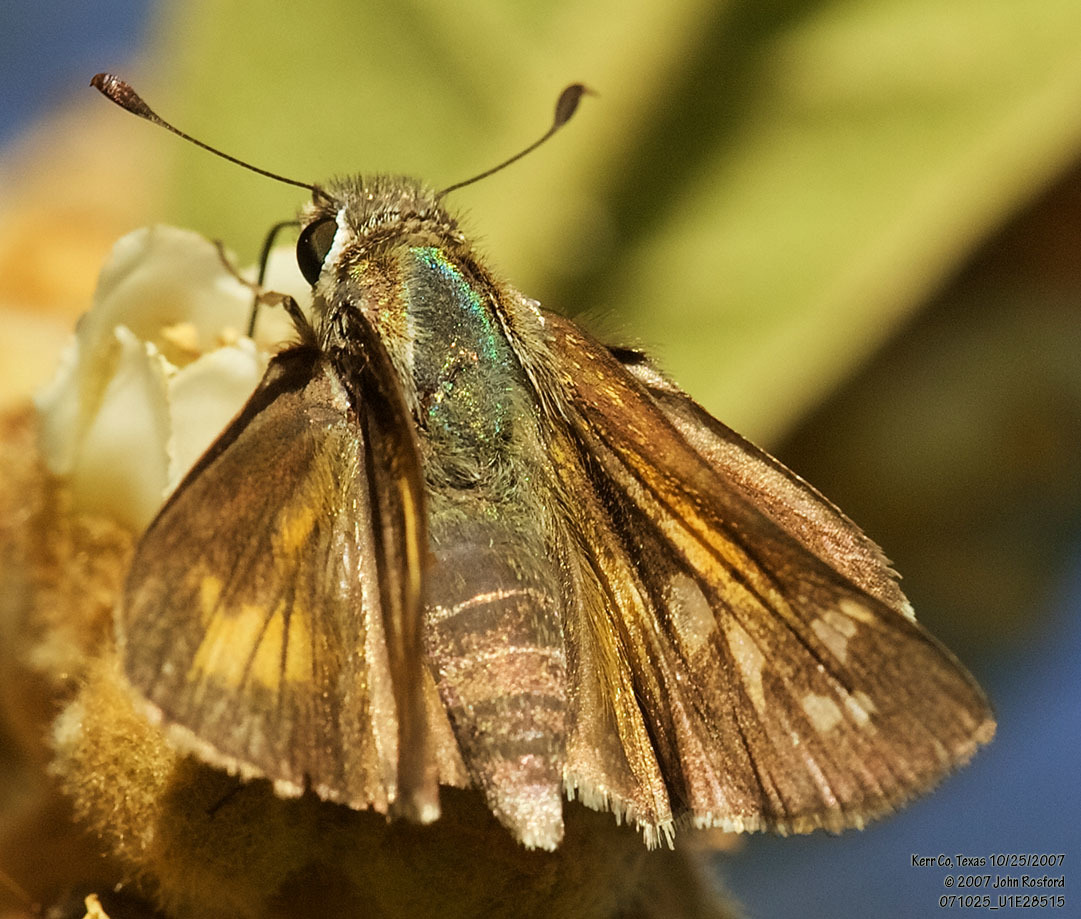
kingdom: Animalia
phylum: Arthropoda
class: Insecta
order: Lepidoptera
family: Hesperiidae
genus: Atalopedes
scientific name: Atalopedes
